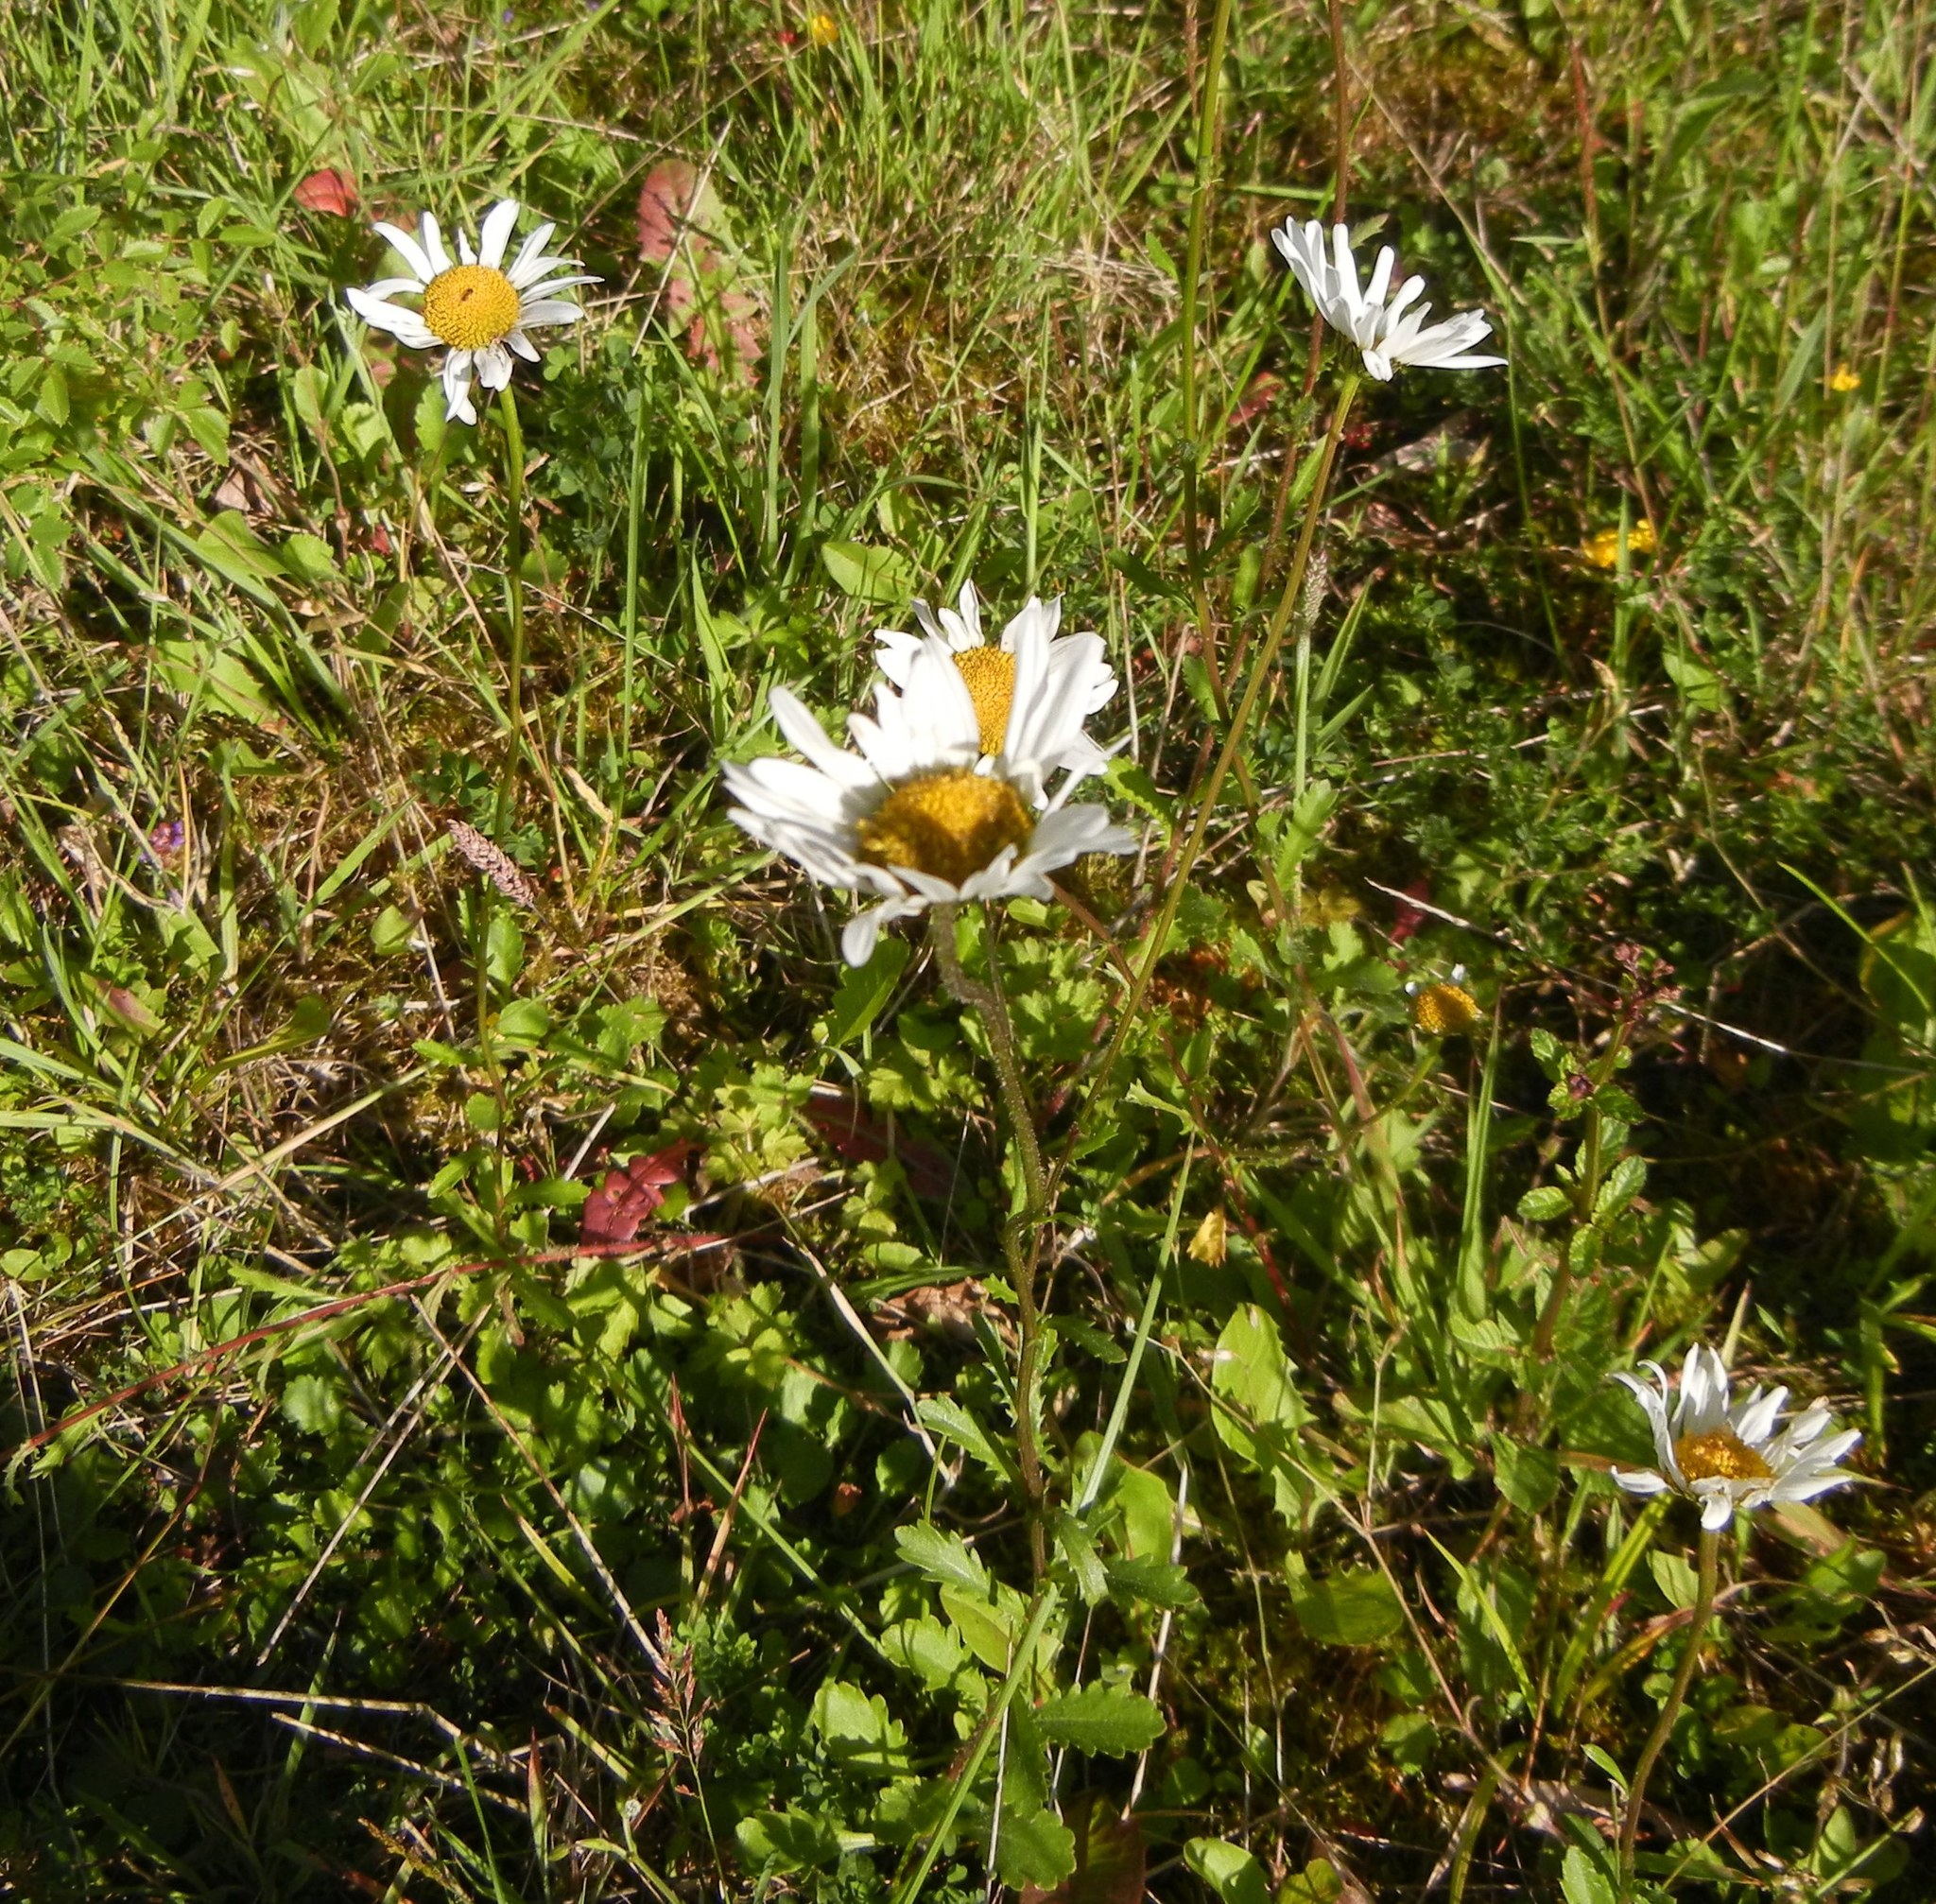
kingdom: Plantae
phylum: Tracheophyta
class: Magnoliopsida
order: Asterales
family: Asteraceae
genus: Leucanthemum
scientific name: Leucanthemum vulgare
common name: Oxeye daisy
